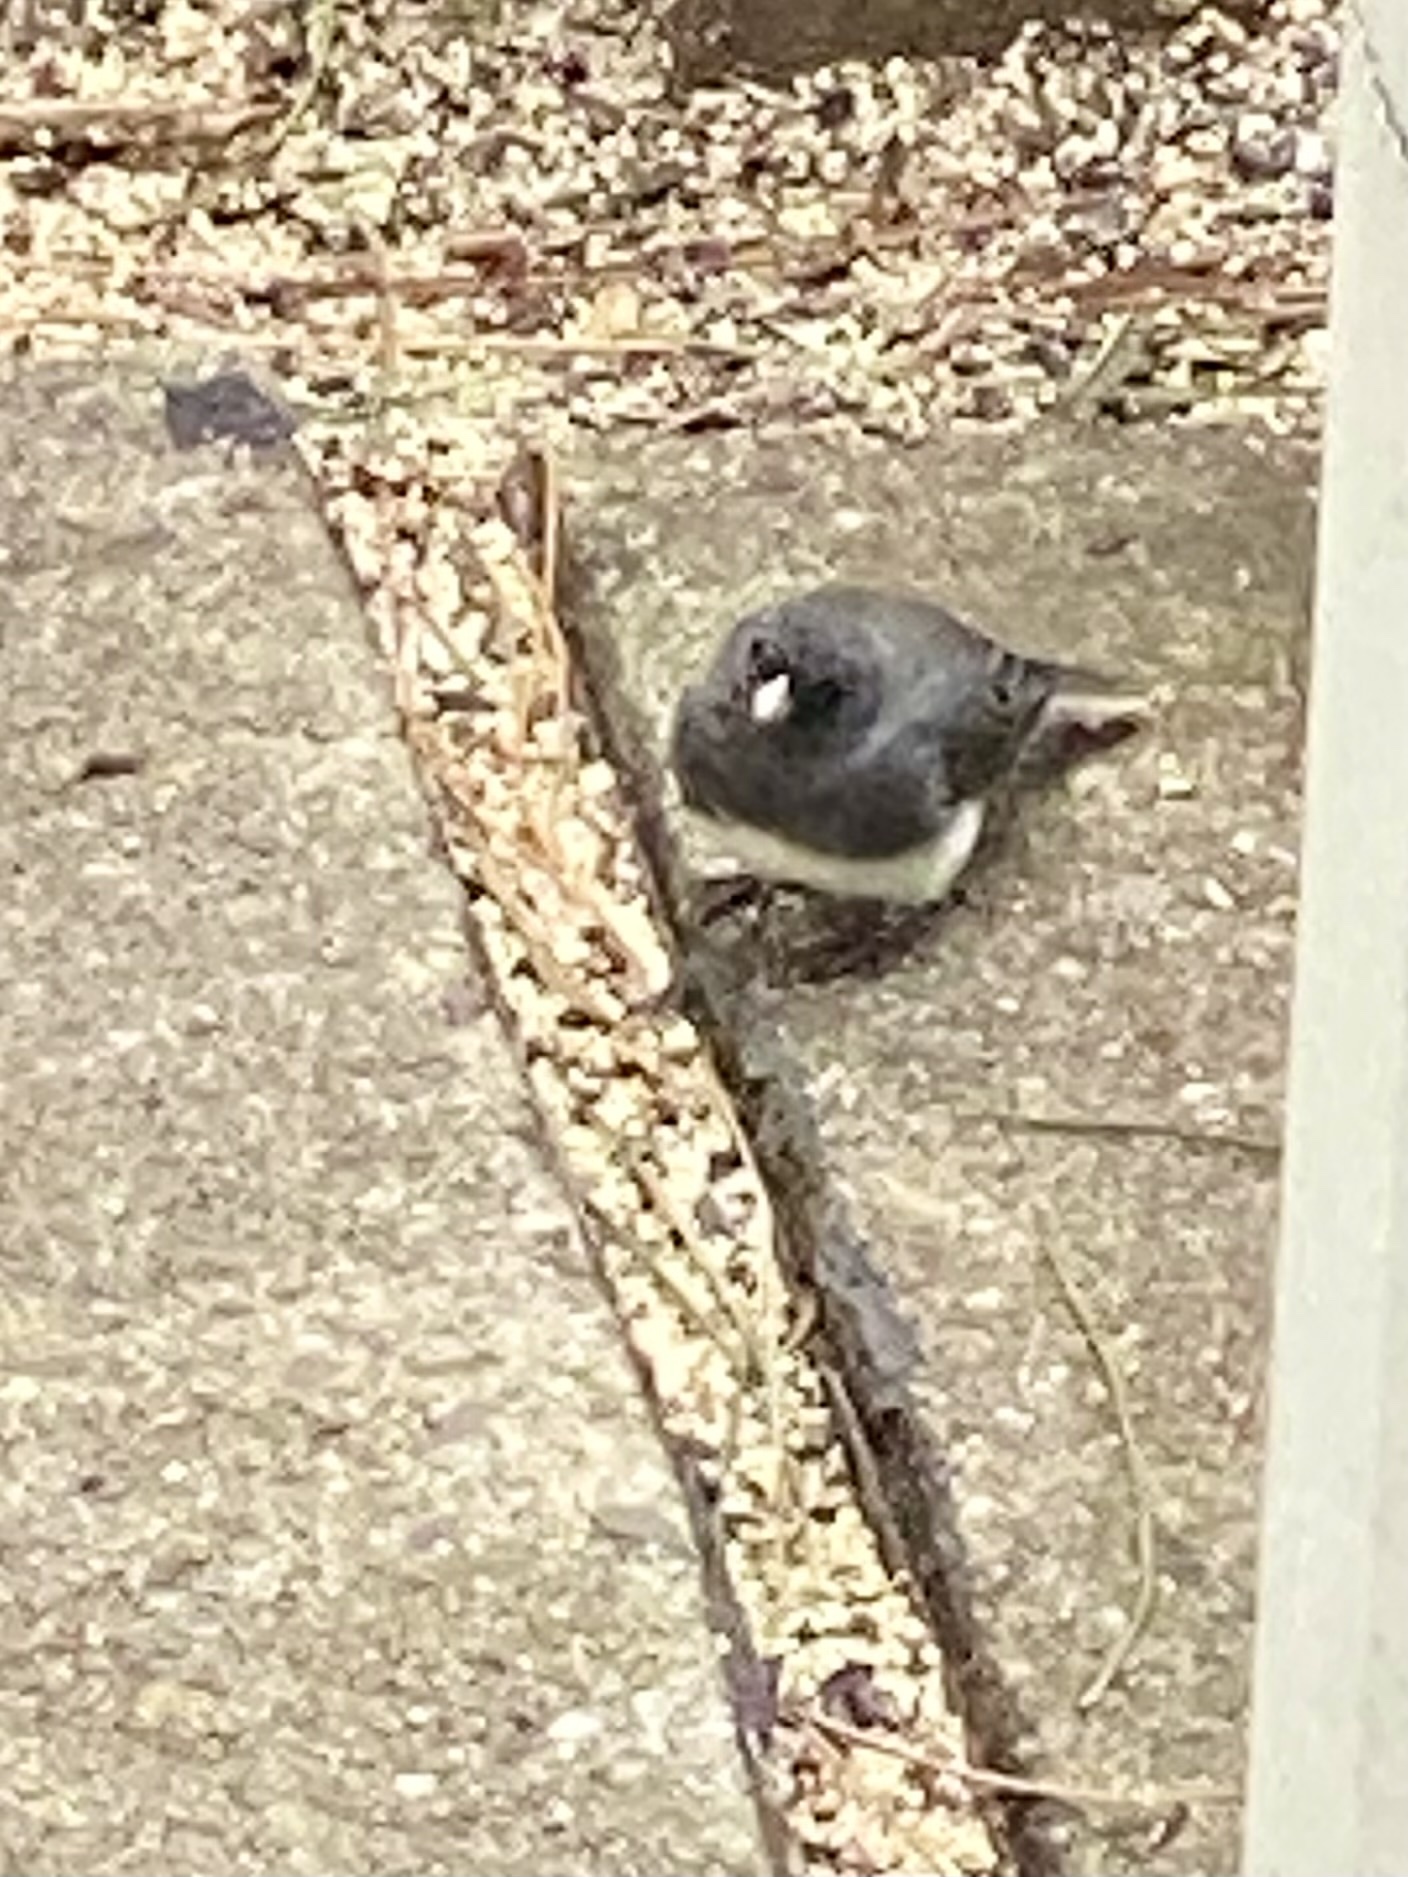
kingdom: Animalia
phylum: Chordata
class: Aves
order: Passeriformes
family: Passerellidae
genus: Junco
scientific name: Junco hyemalis
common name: Dark-eyed junco
